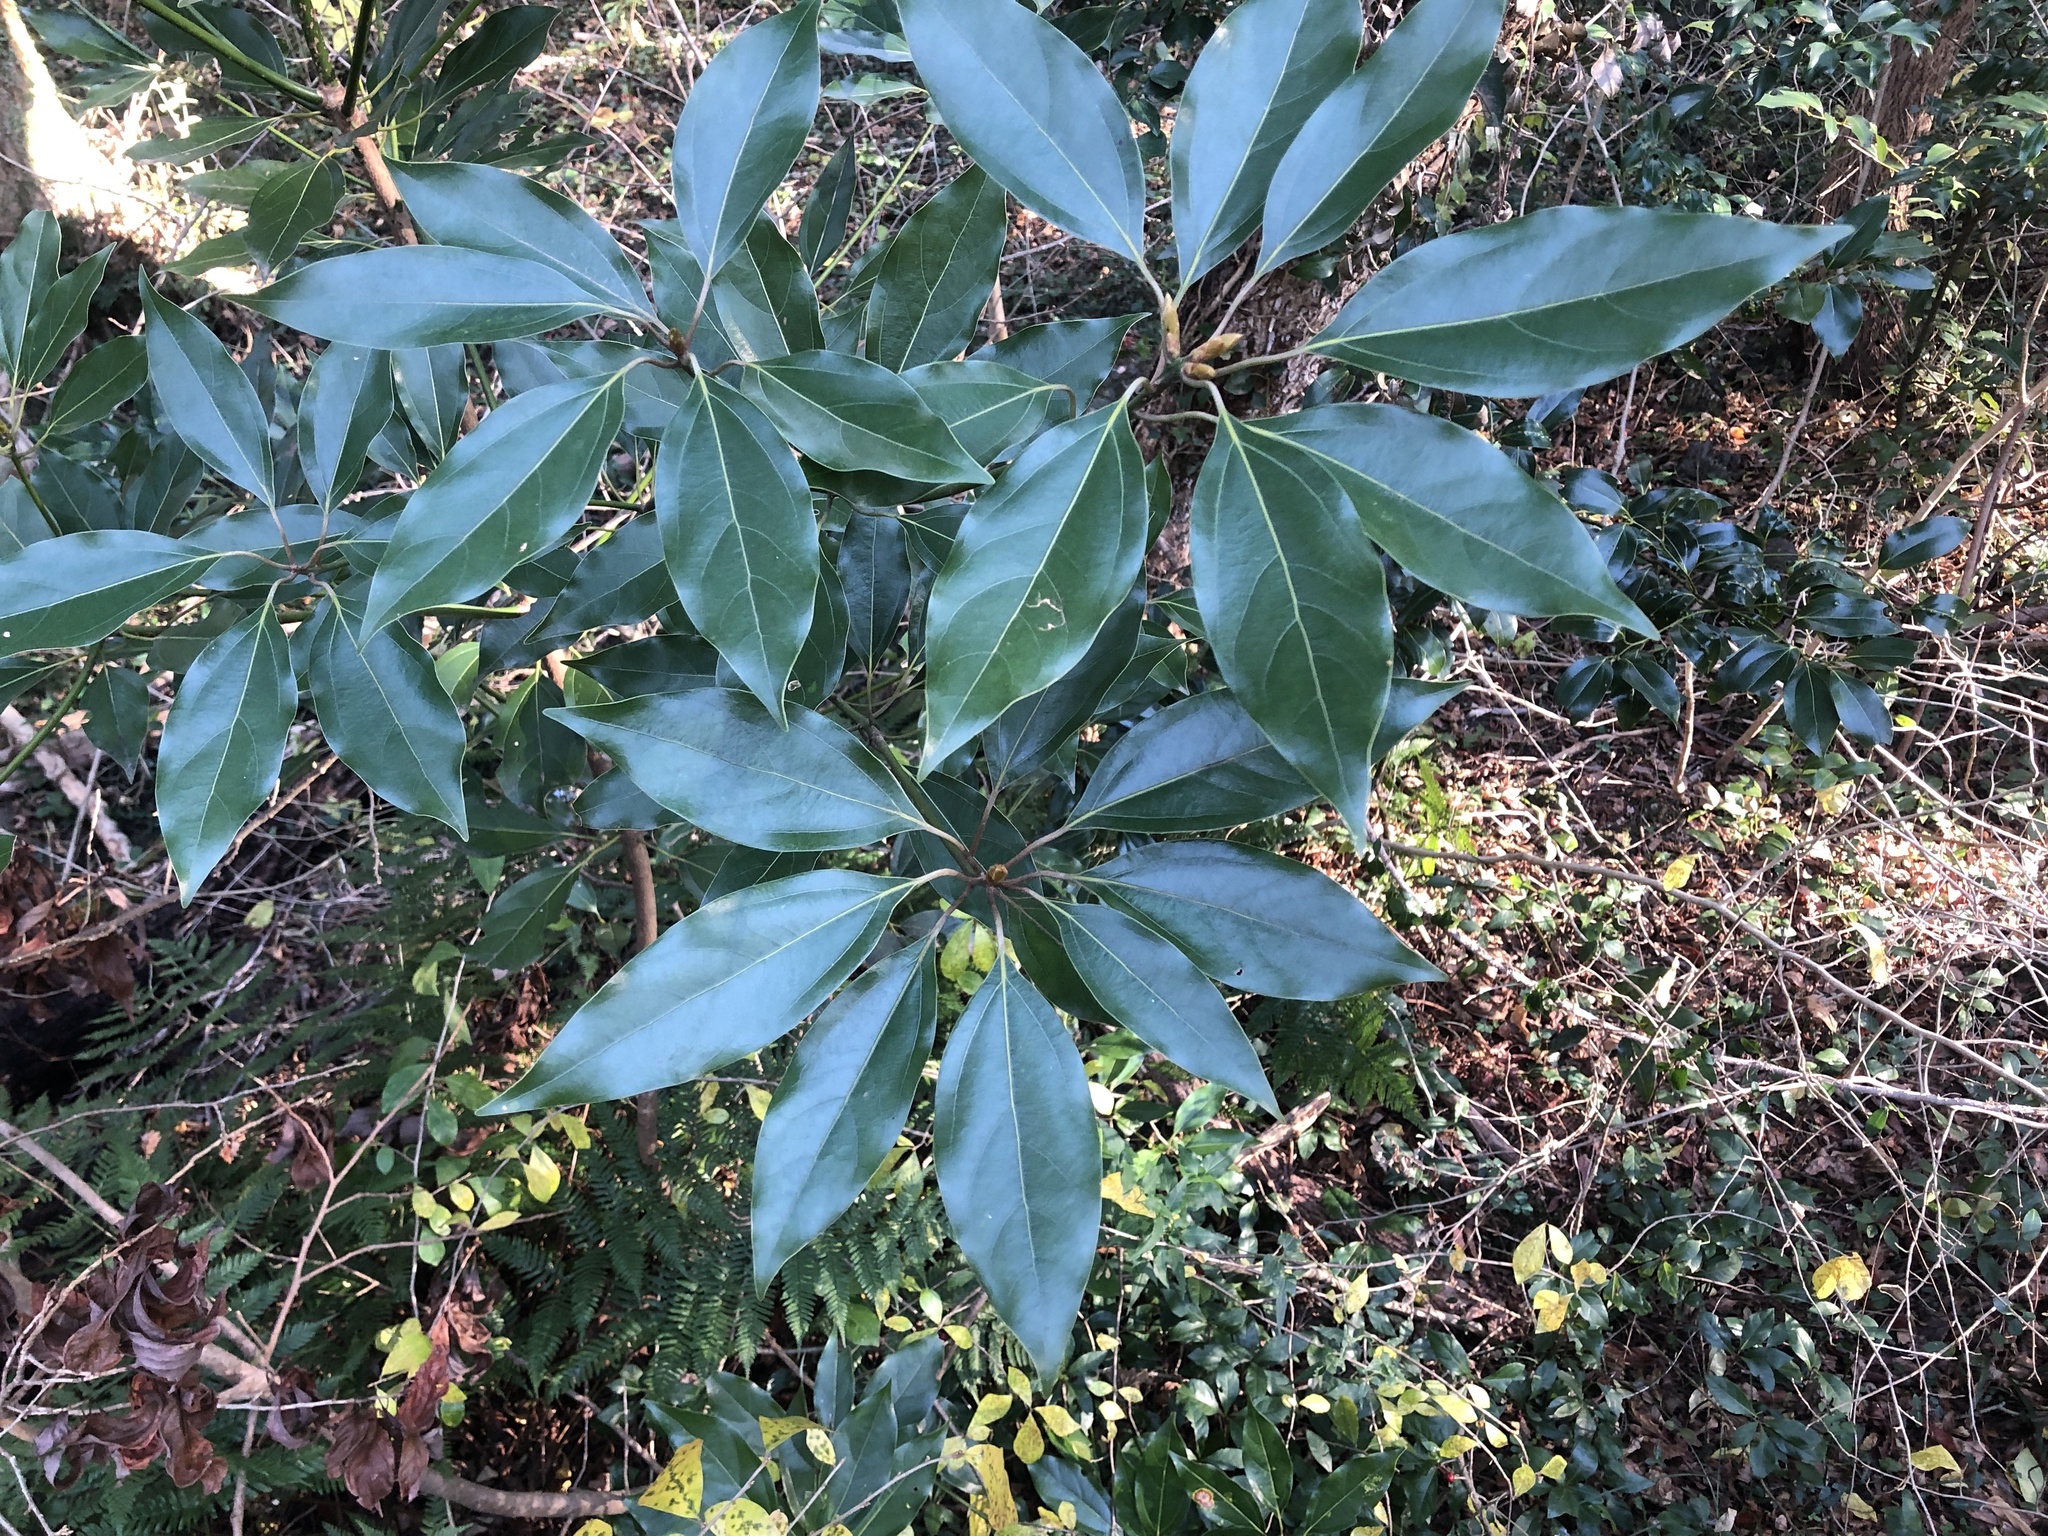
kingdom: Plantae
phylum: Tracheophyta
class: Magnoliopsida
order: Laurales
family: Lauraceae
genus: Neolitsea
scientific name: Neolitsea sericea
